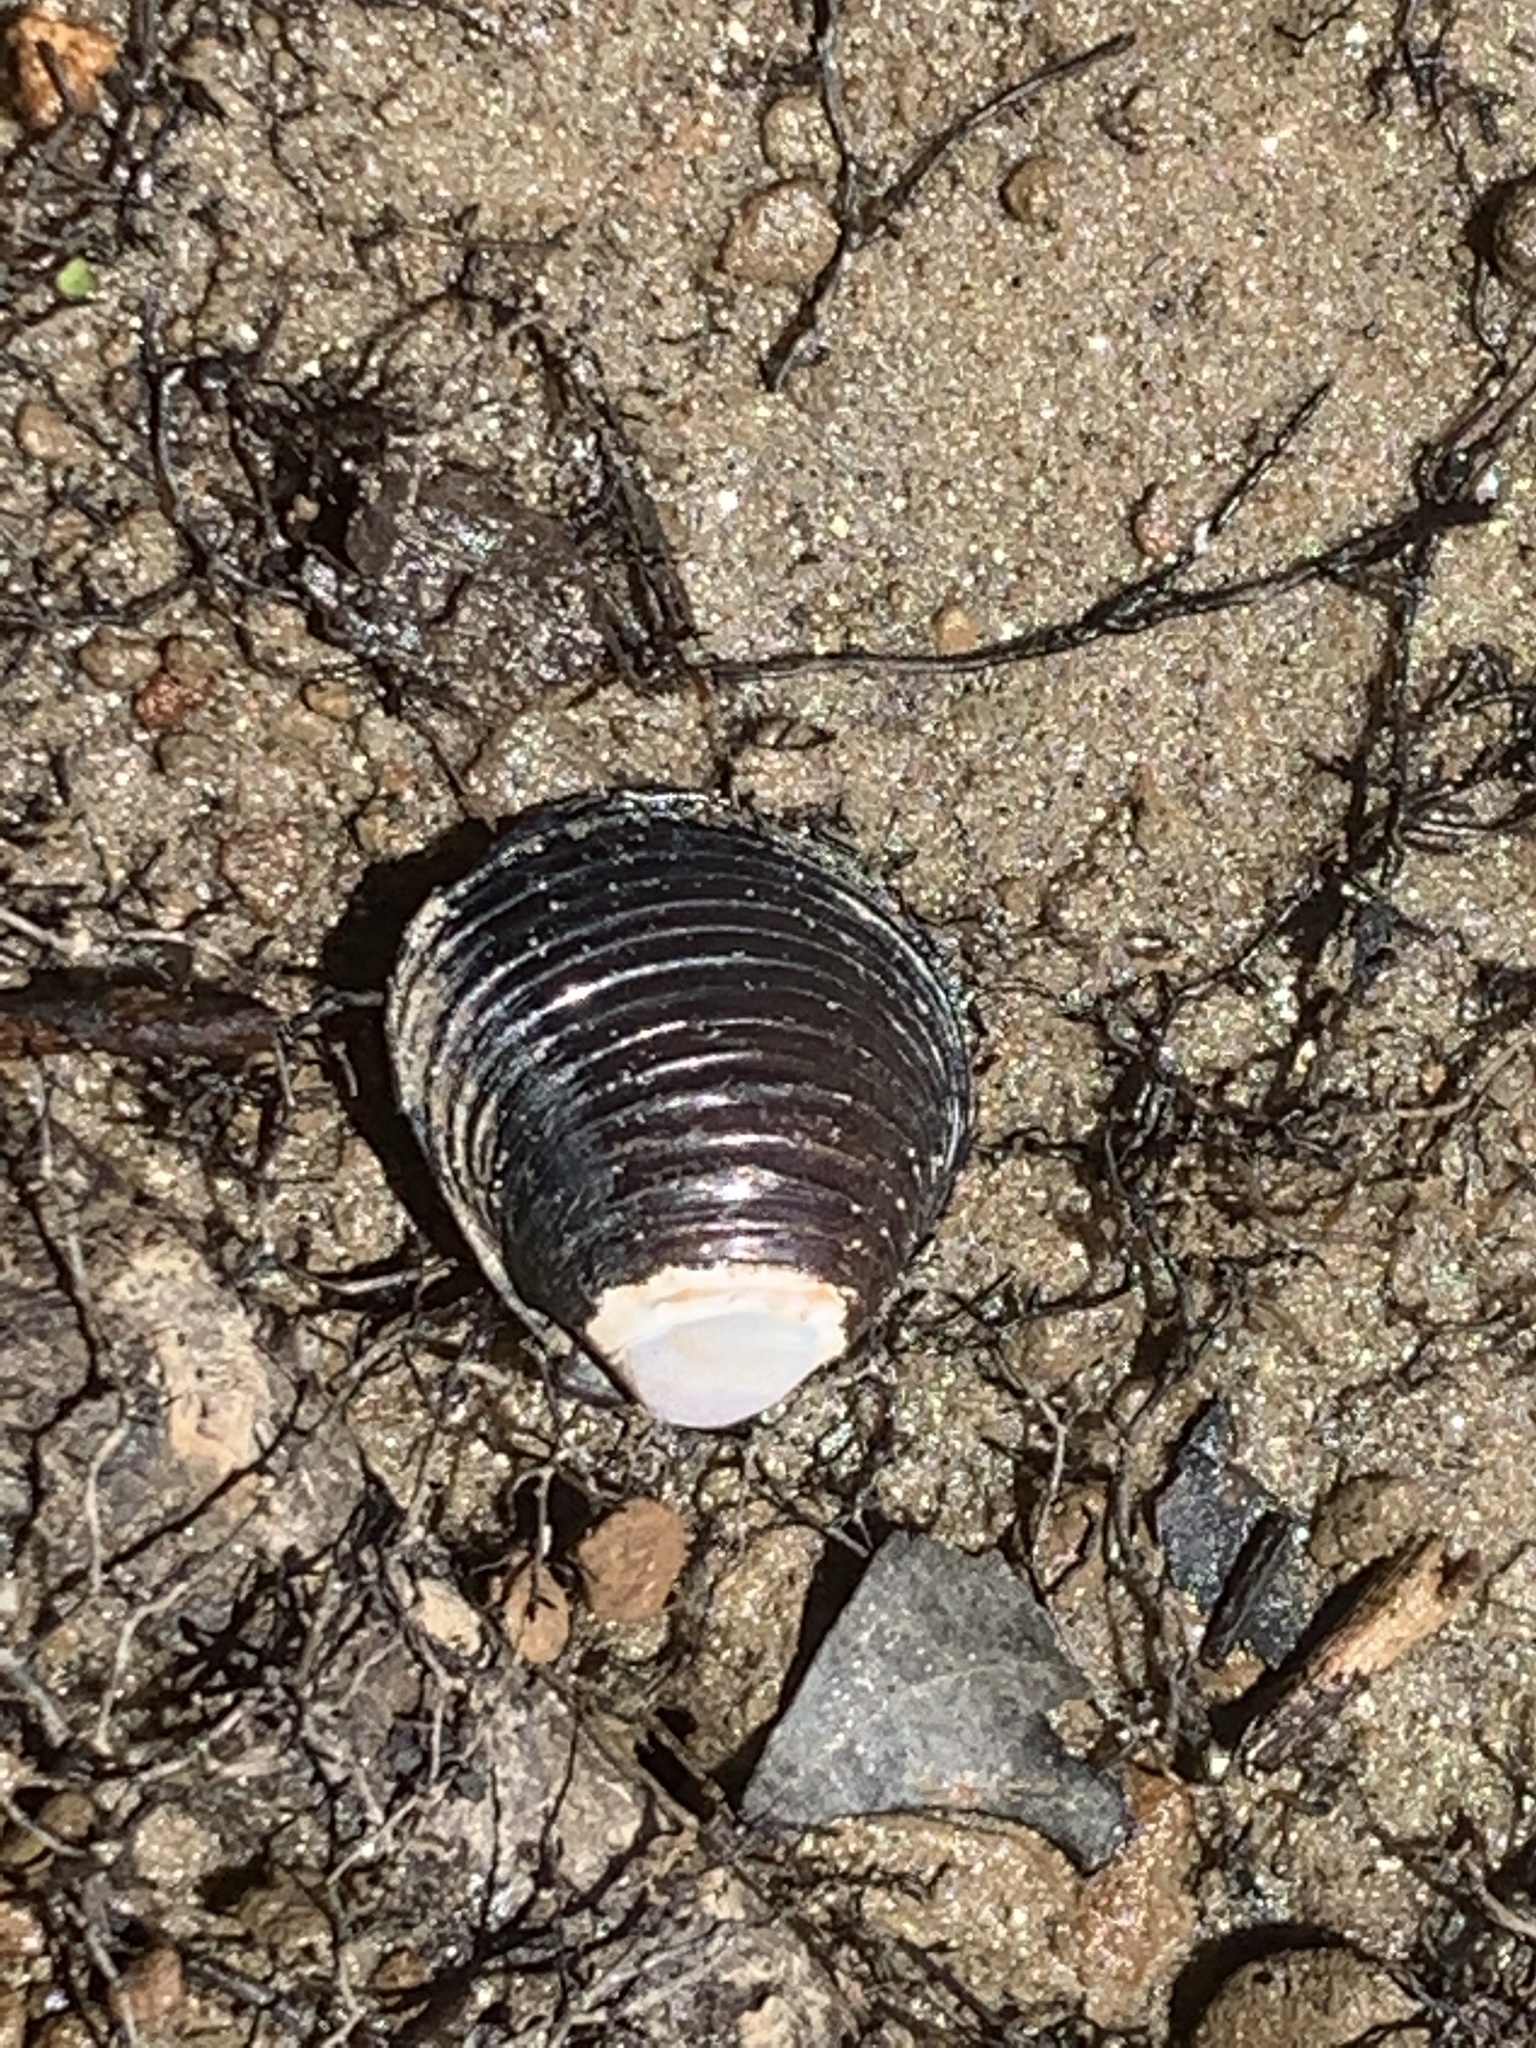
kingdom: Animalia
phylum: Mollusca
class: Bivalvia
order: Venerida
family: Cyrenidae
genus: Corbicula
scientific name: Corbicula fluminea
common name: Asian clam
